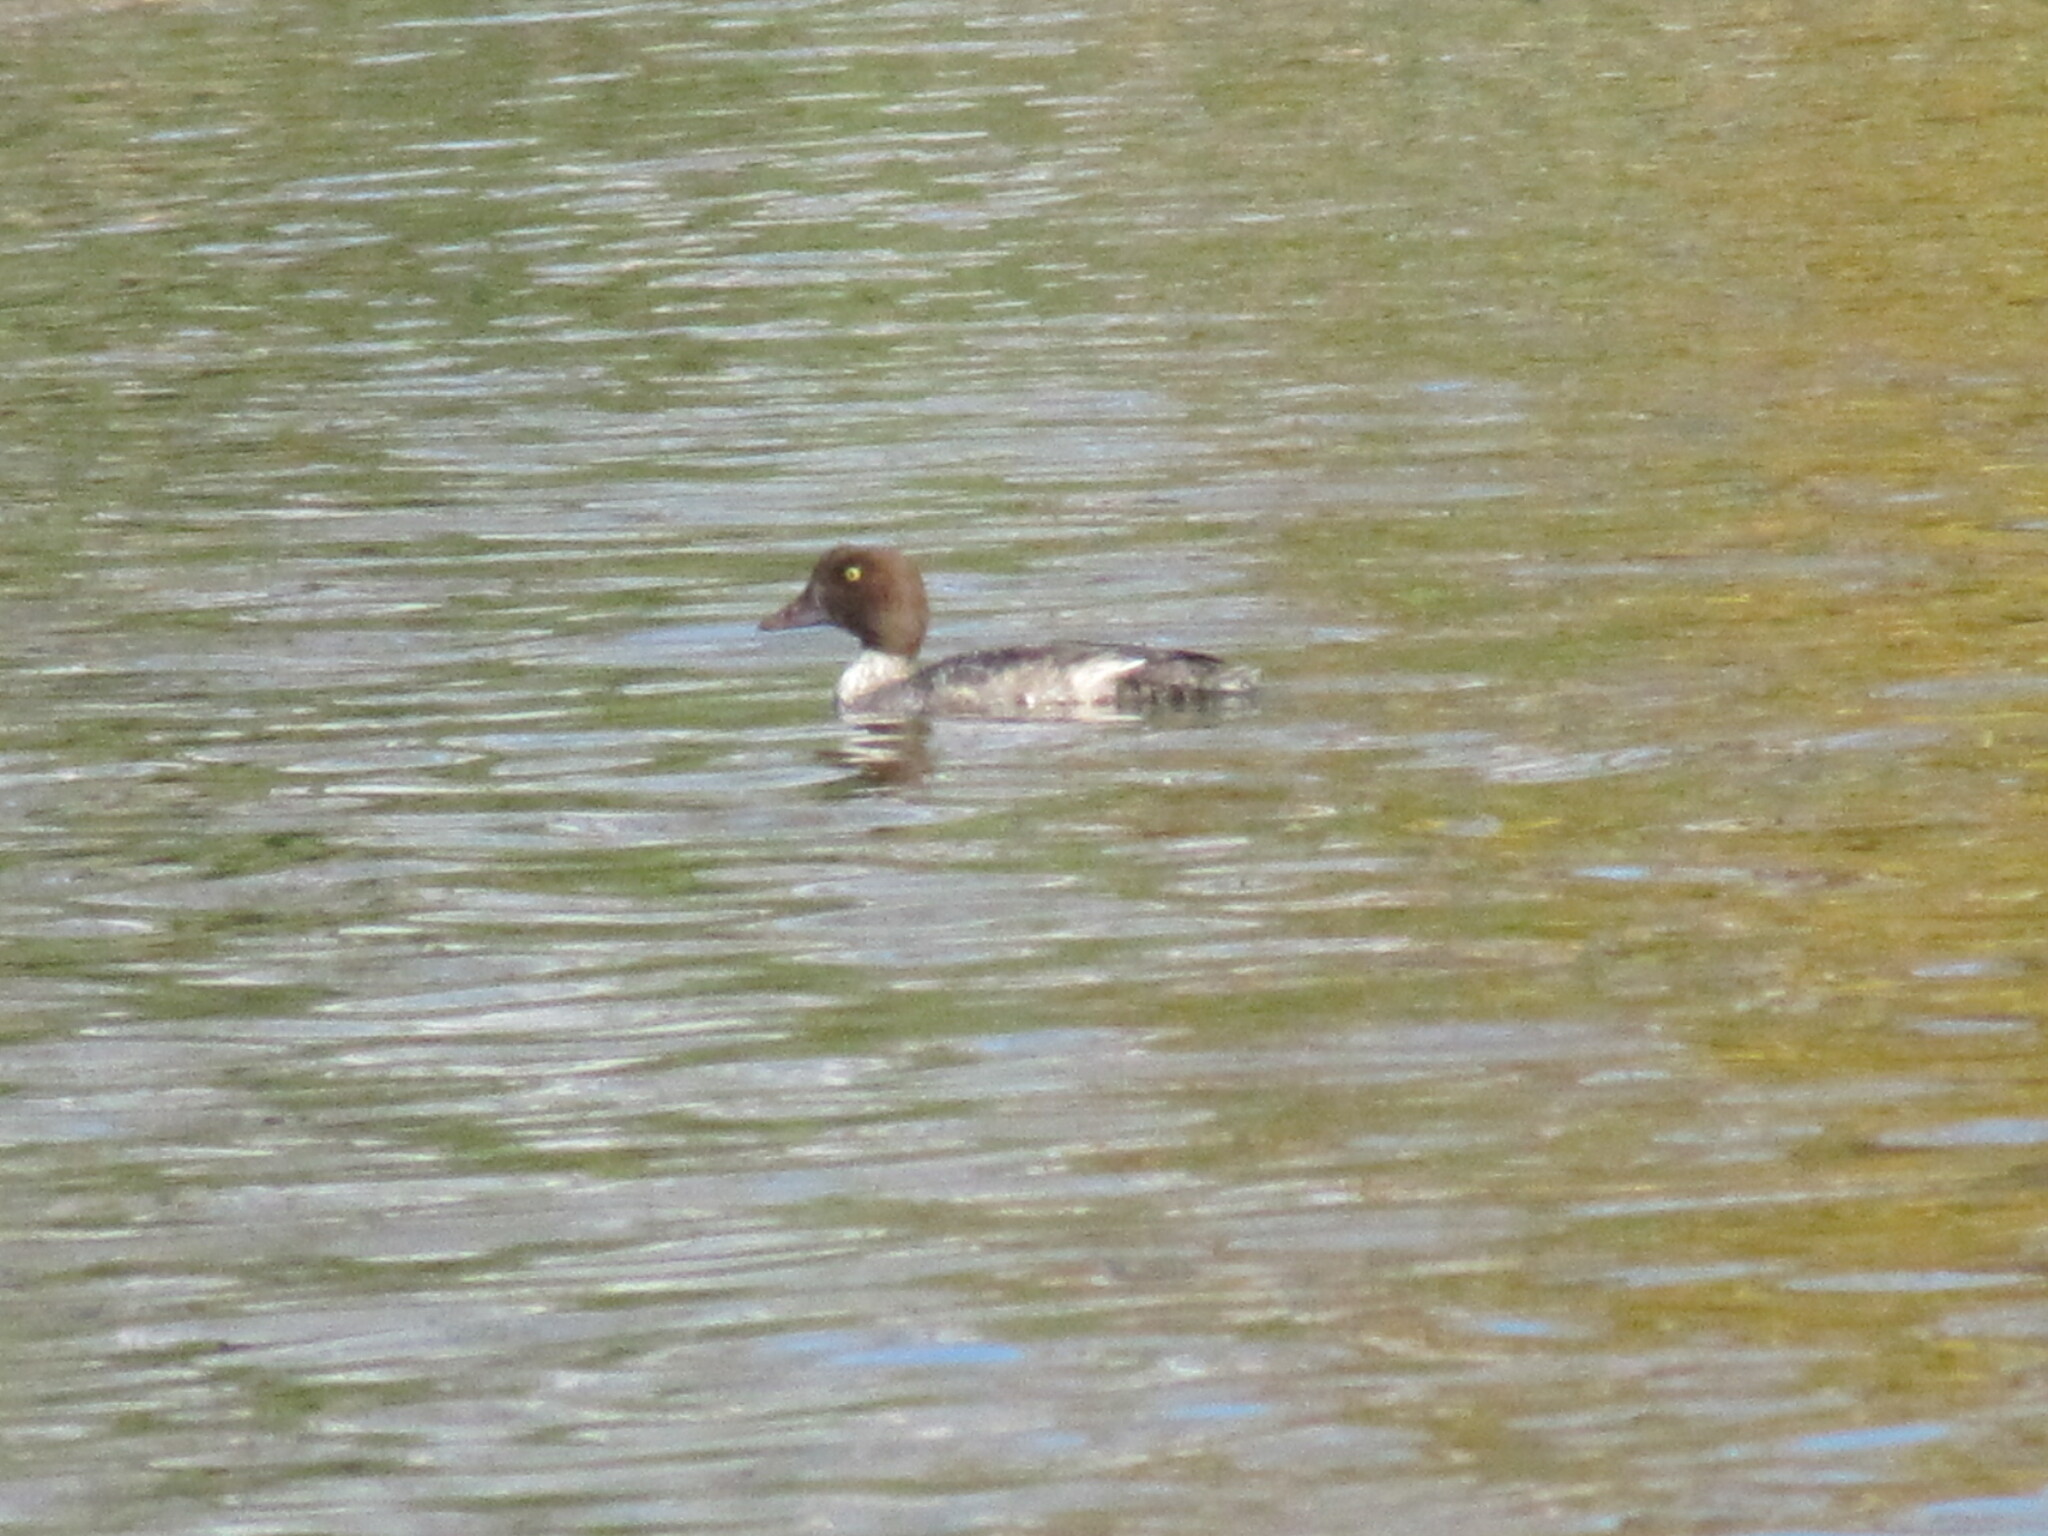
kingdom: Animalia
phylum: Chordata
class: Aves
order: Anseriformes
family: Anatidae
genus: Bucephala
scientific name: Bucephala clangula
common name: Common goldeneye
